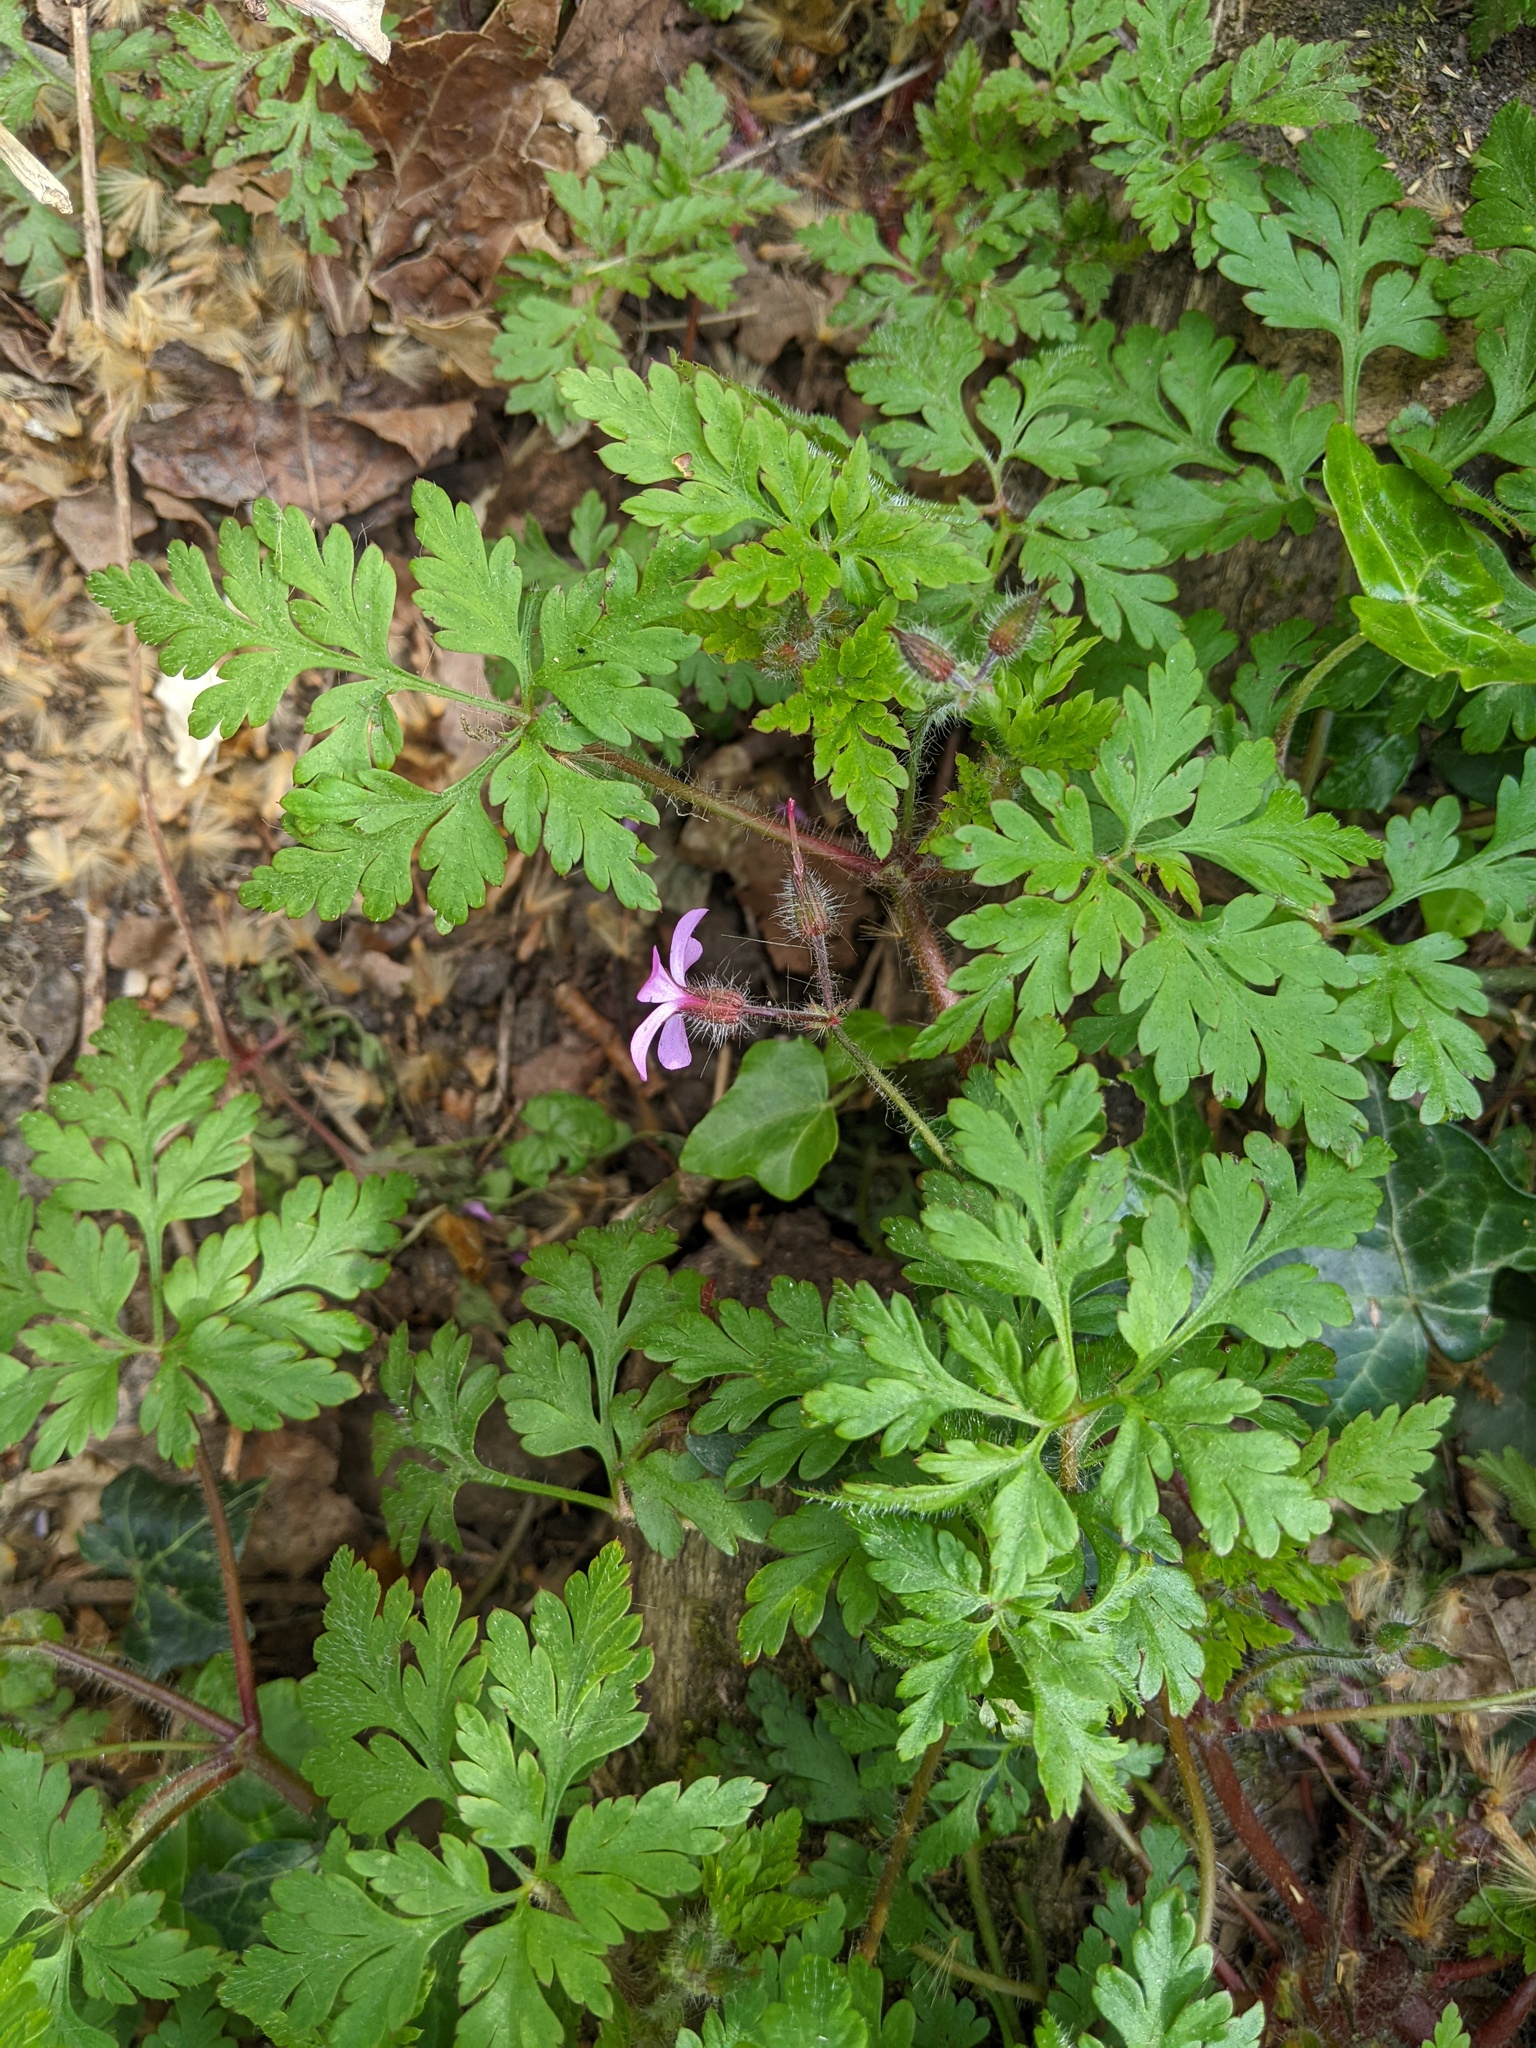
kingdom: Plantae
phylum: Tracheophyta
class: Magnoliopsida
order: Geraniales
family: Geraniaceae
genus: Geranium
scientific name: Geranium robertianum
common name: Herb-robert
